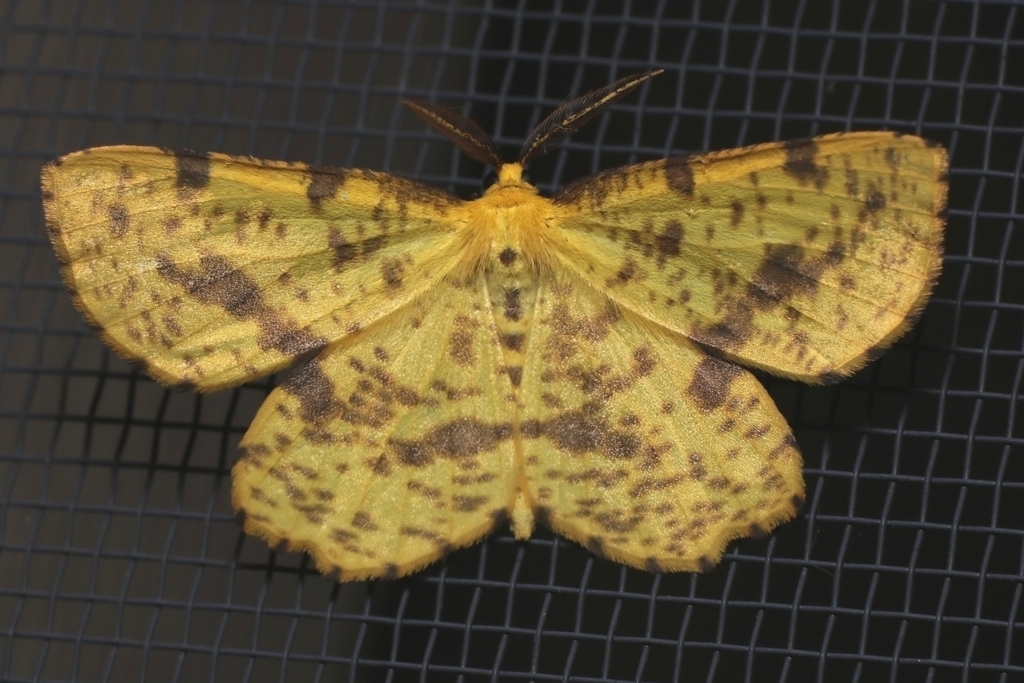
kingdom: Animalia
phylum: Arthropoda
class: Insecta
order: Lepidoptera
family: Geometridae
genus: Xanthotype
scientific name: Xanthotype
